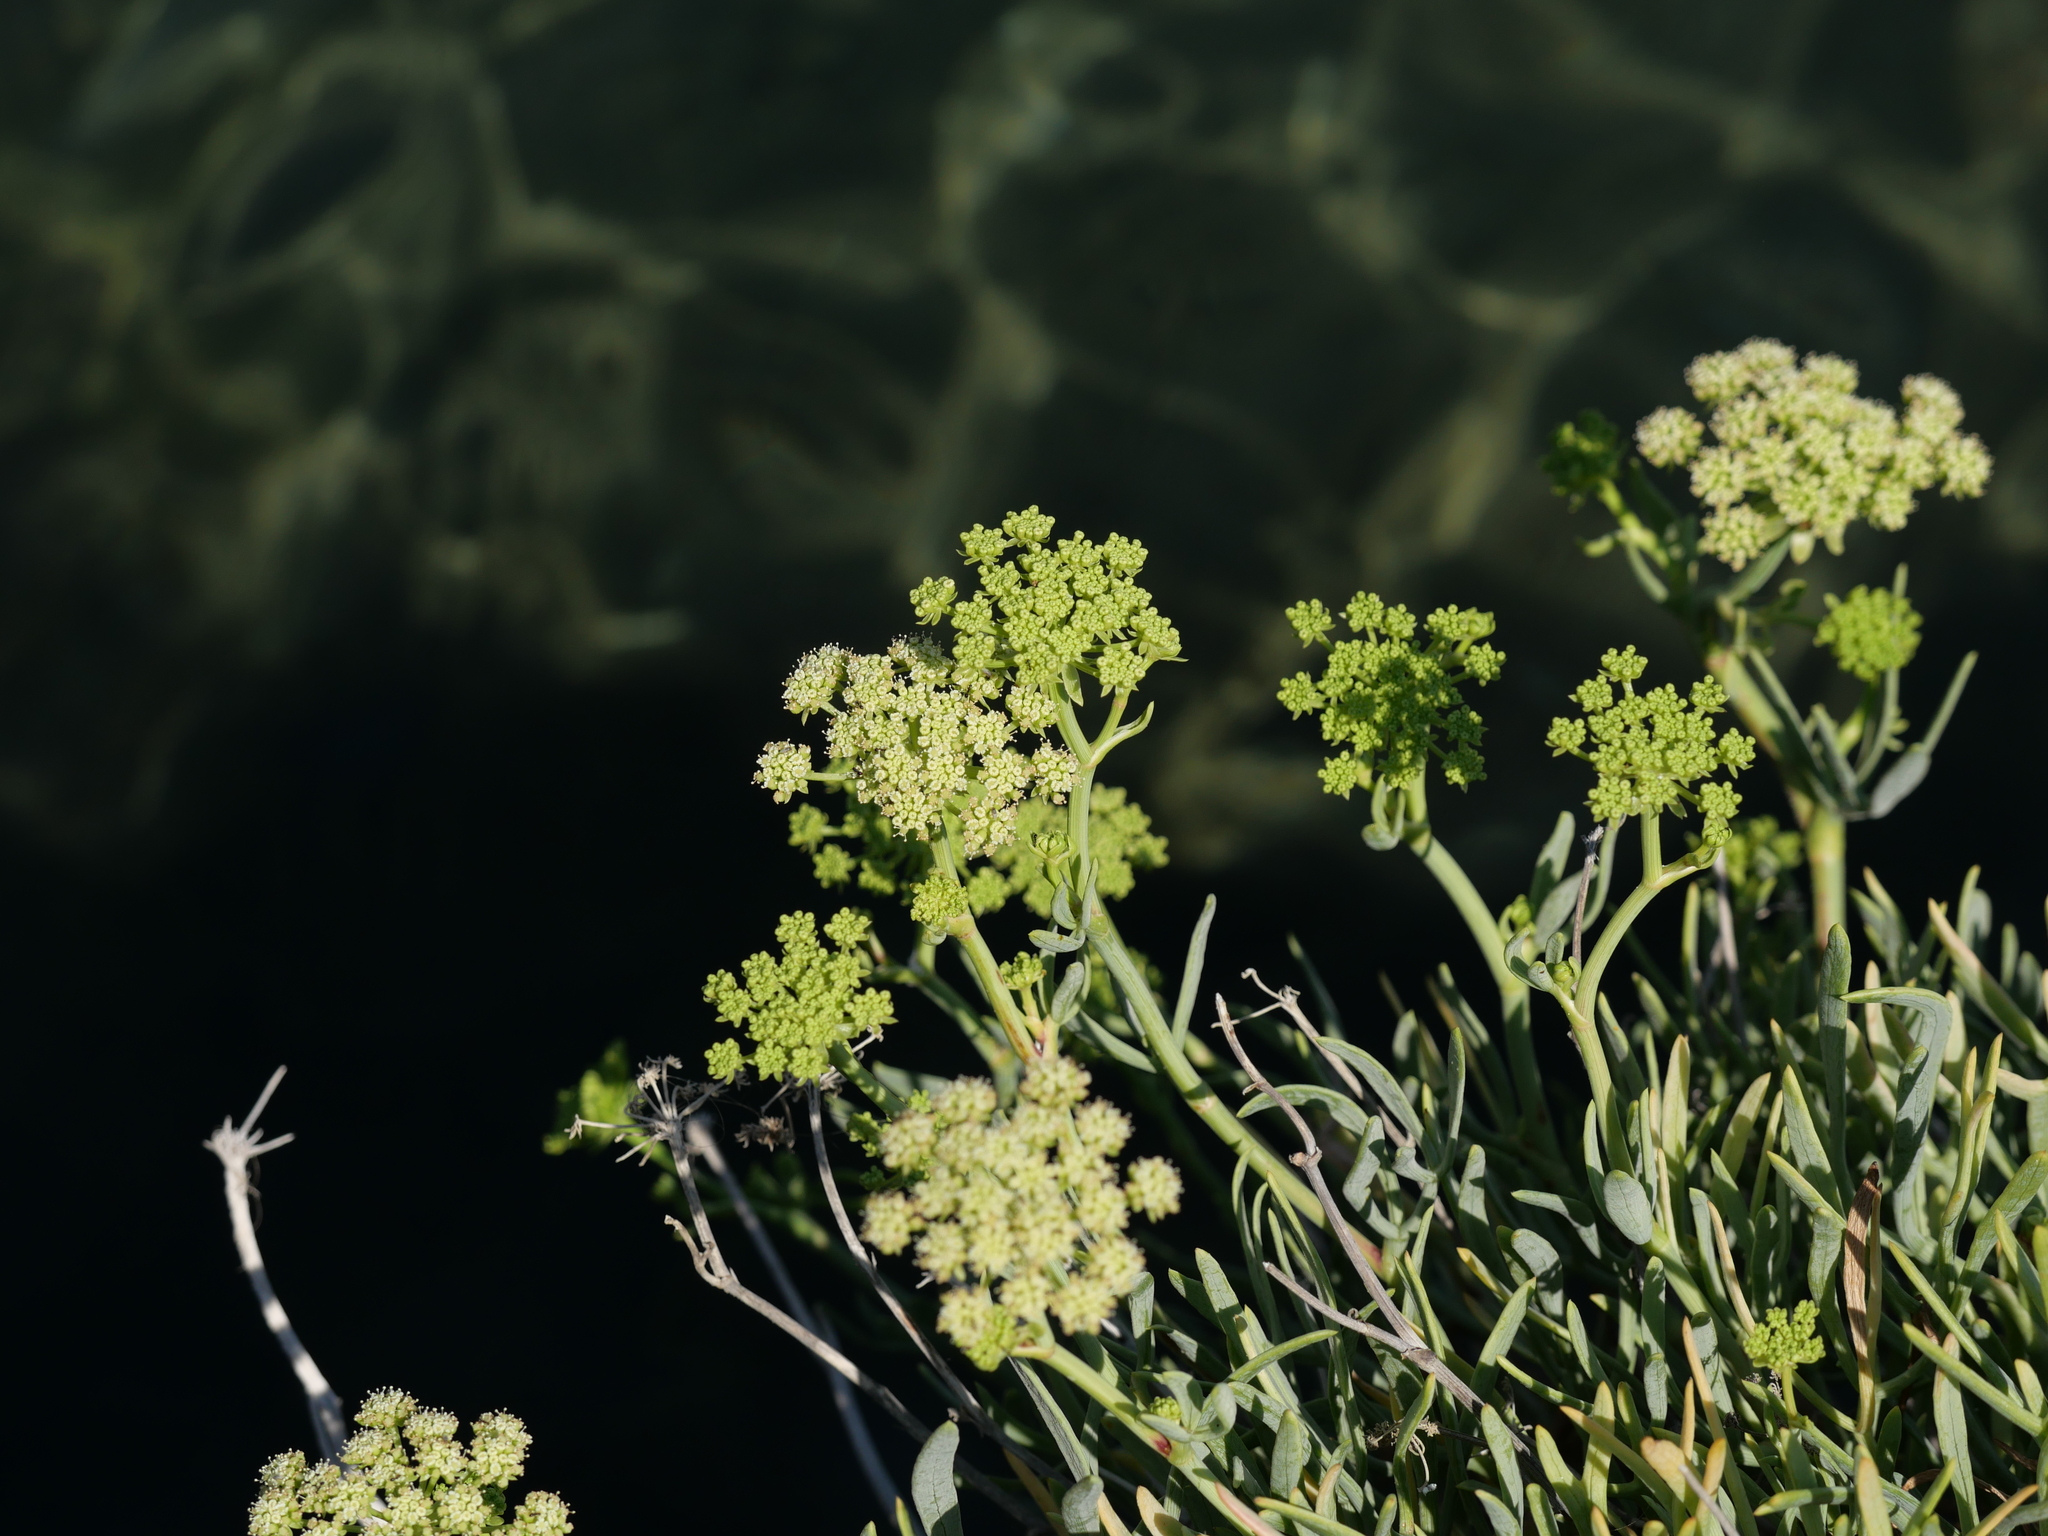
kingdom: Plantae
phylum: Tracheophyta
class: Magnoliopsida
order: Apiales
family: Apiaceae
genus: Crithmum
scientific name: Crithmum maritimum
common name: Rock samphire
